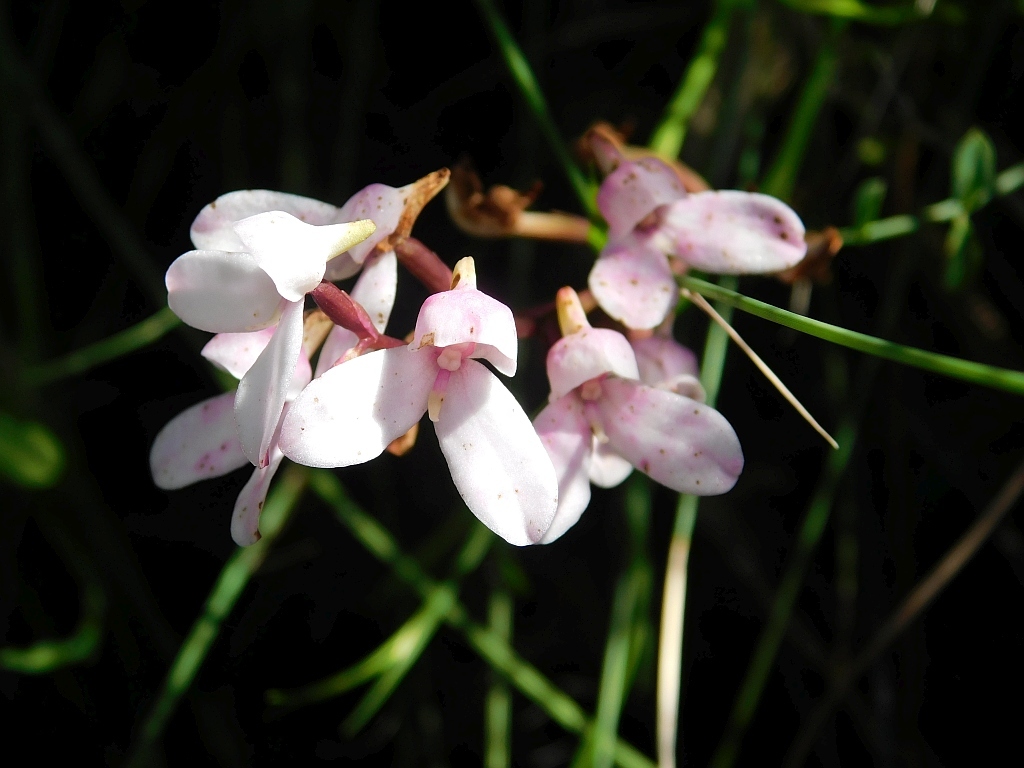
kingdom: Plantae
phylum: Tracheophyta
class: Liliopsida
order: Asparagales
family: Orchidaceae
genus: Disa
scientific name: Disa tripetaloides
